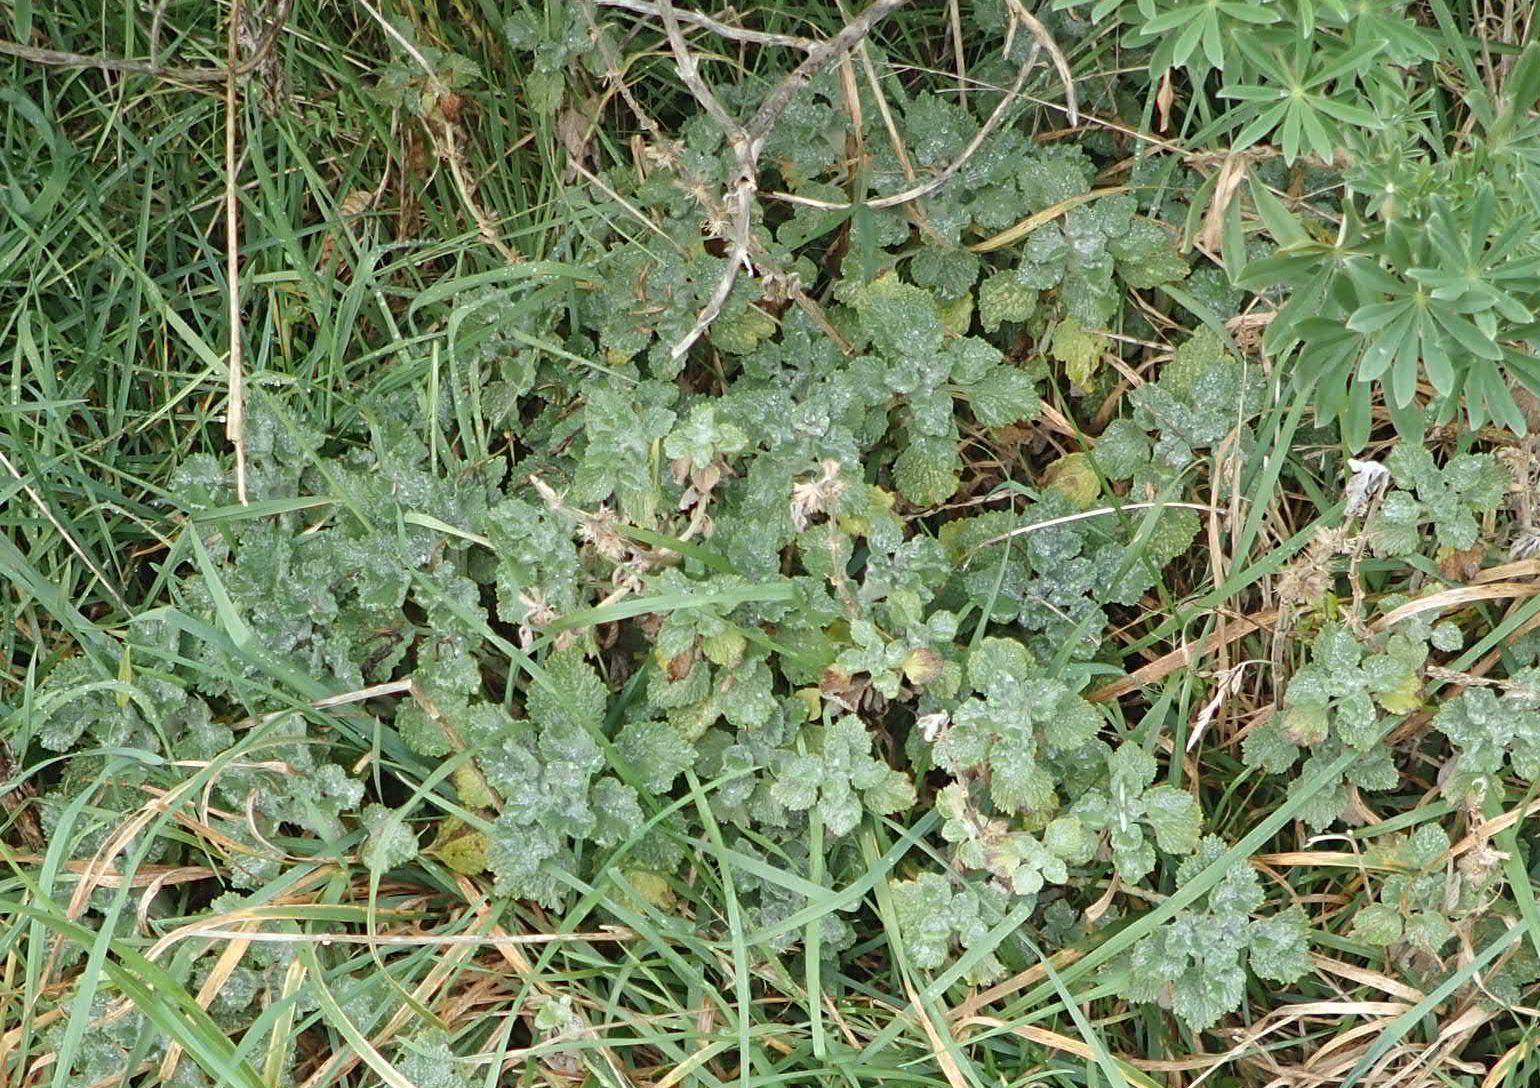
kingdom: Plantae
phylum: Tracheophyta
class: Magnoliopsida
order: Lamiales
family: Lamiaceae
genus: Marrubium
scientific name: Marrubium vulgare
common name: Horehound
